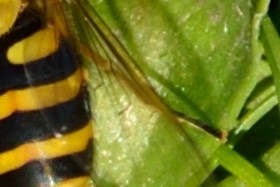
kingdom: Animalia
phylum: Arthropoda
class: Insecta
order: Diptera
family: Syrphidae
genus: Syrphus
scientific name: Syrphus ribesii
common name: Common flower fly
